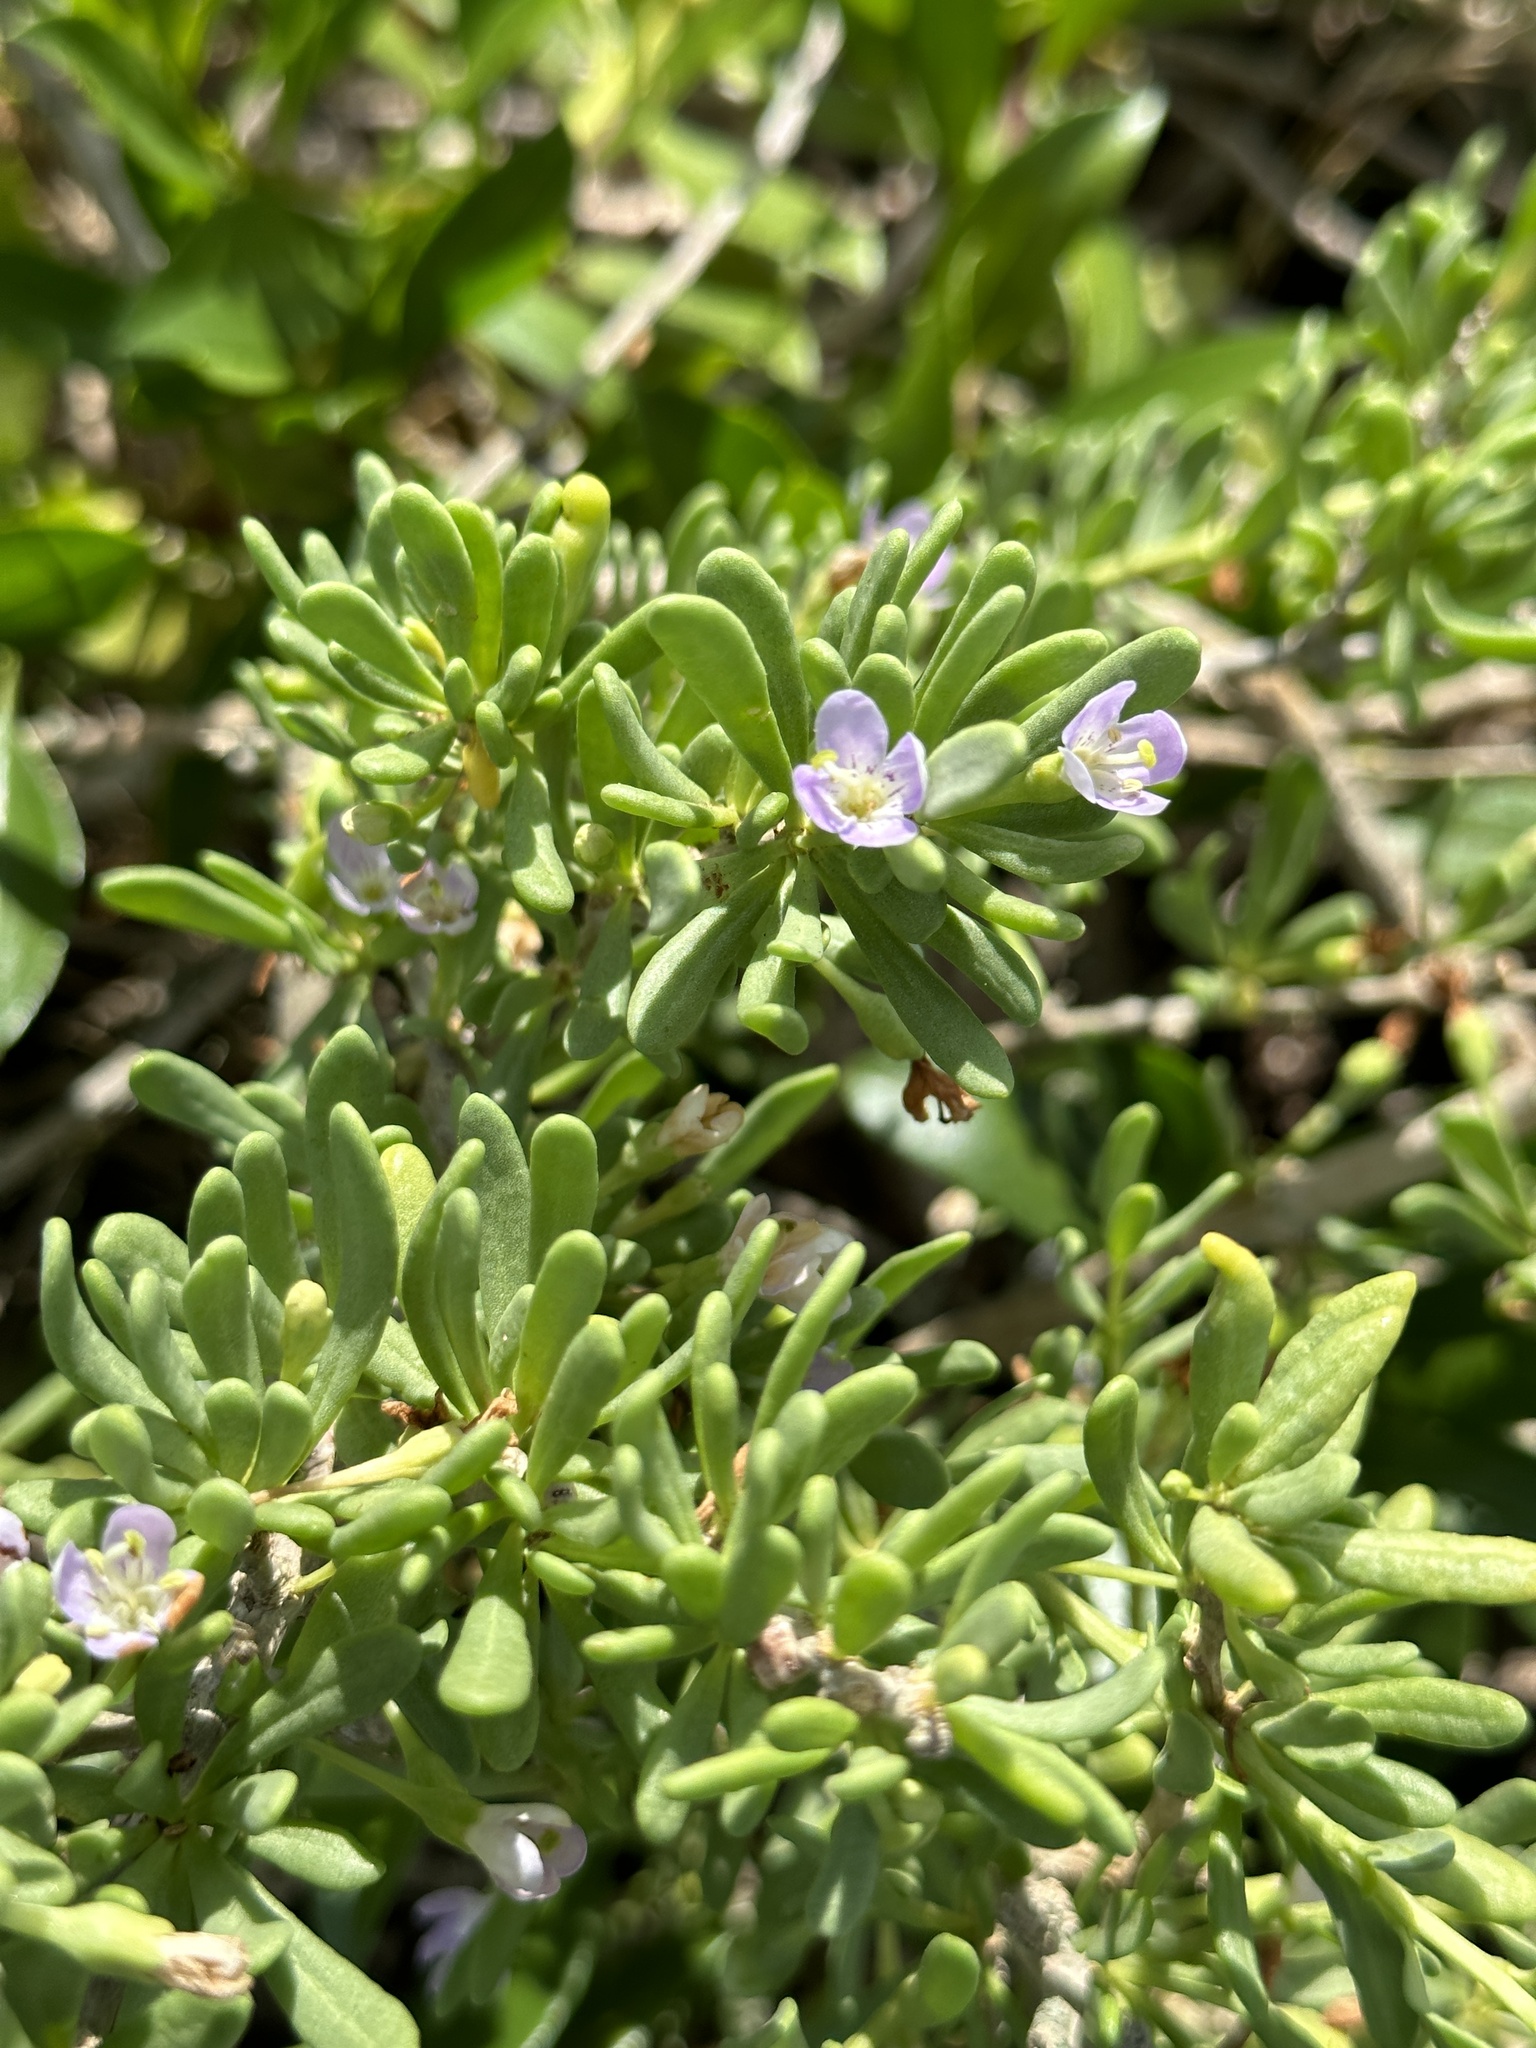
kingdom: Plantae
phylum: Tracheophyta
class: Magnoliopsida
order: Solanales
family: Solanaceae
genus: Lycium
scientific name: Lycium sandwicense
